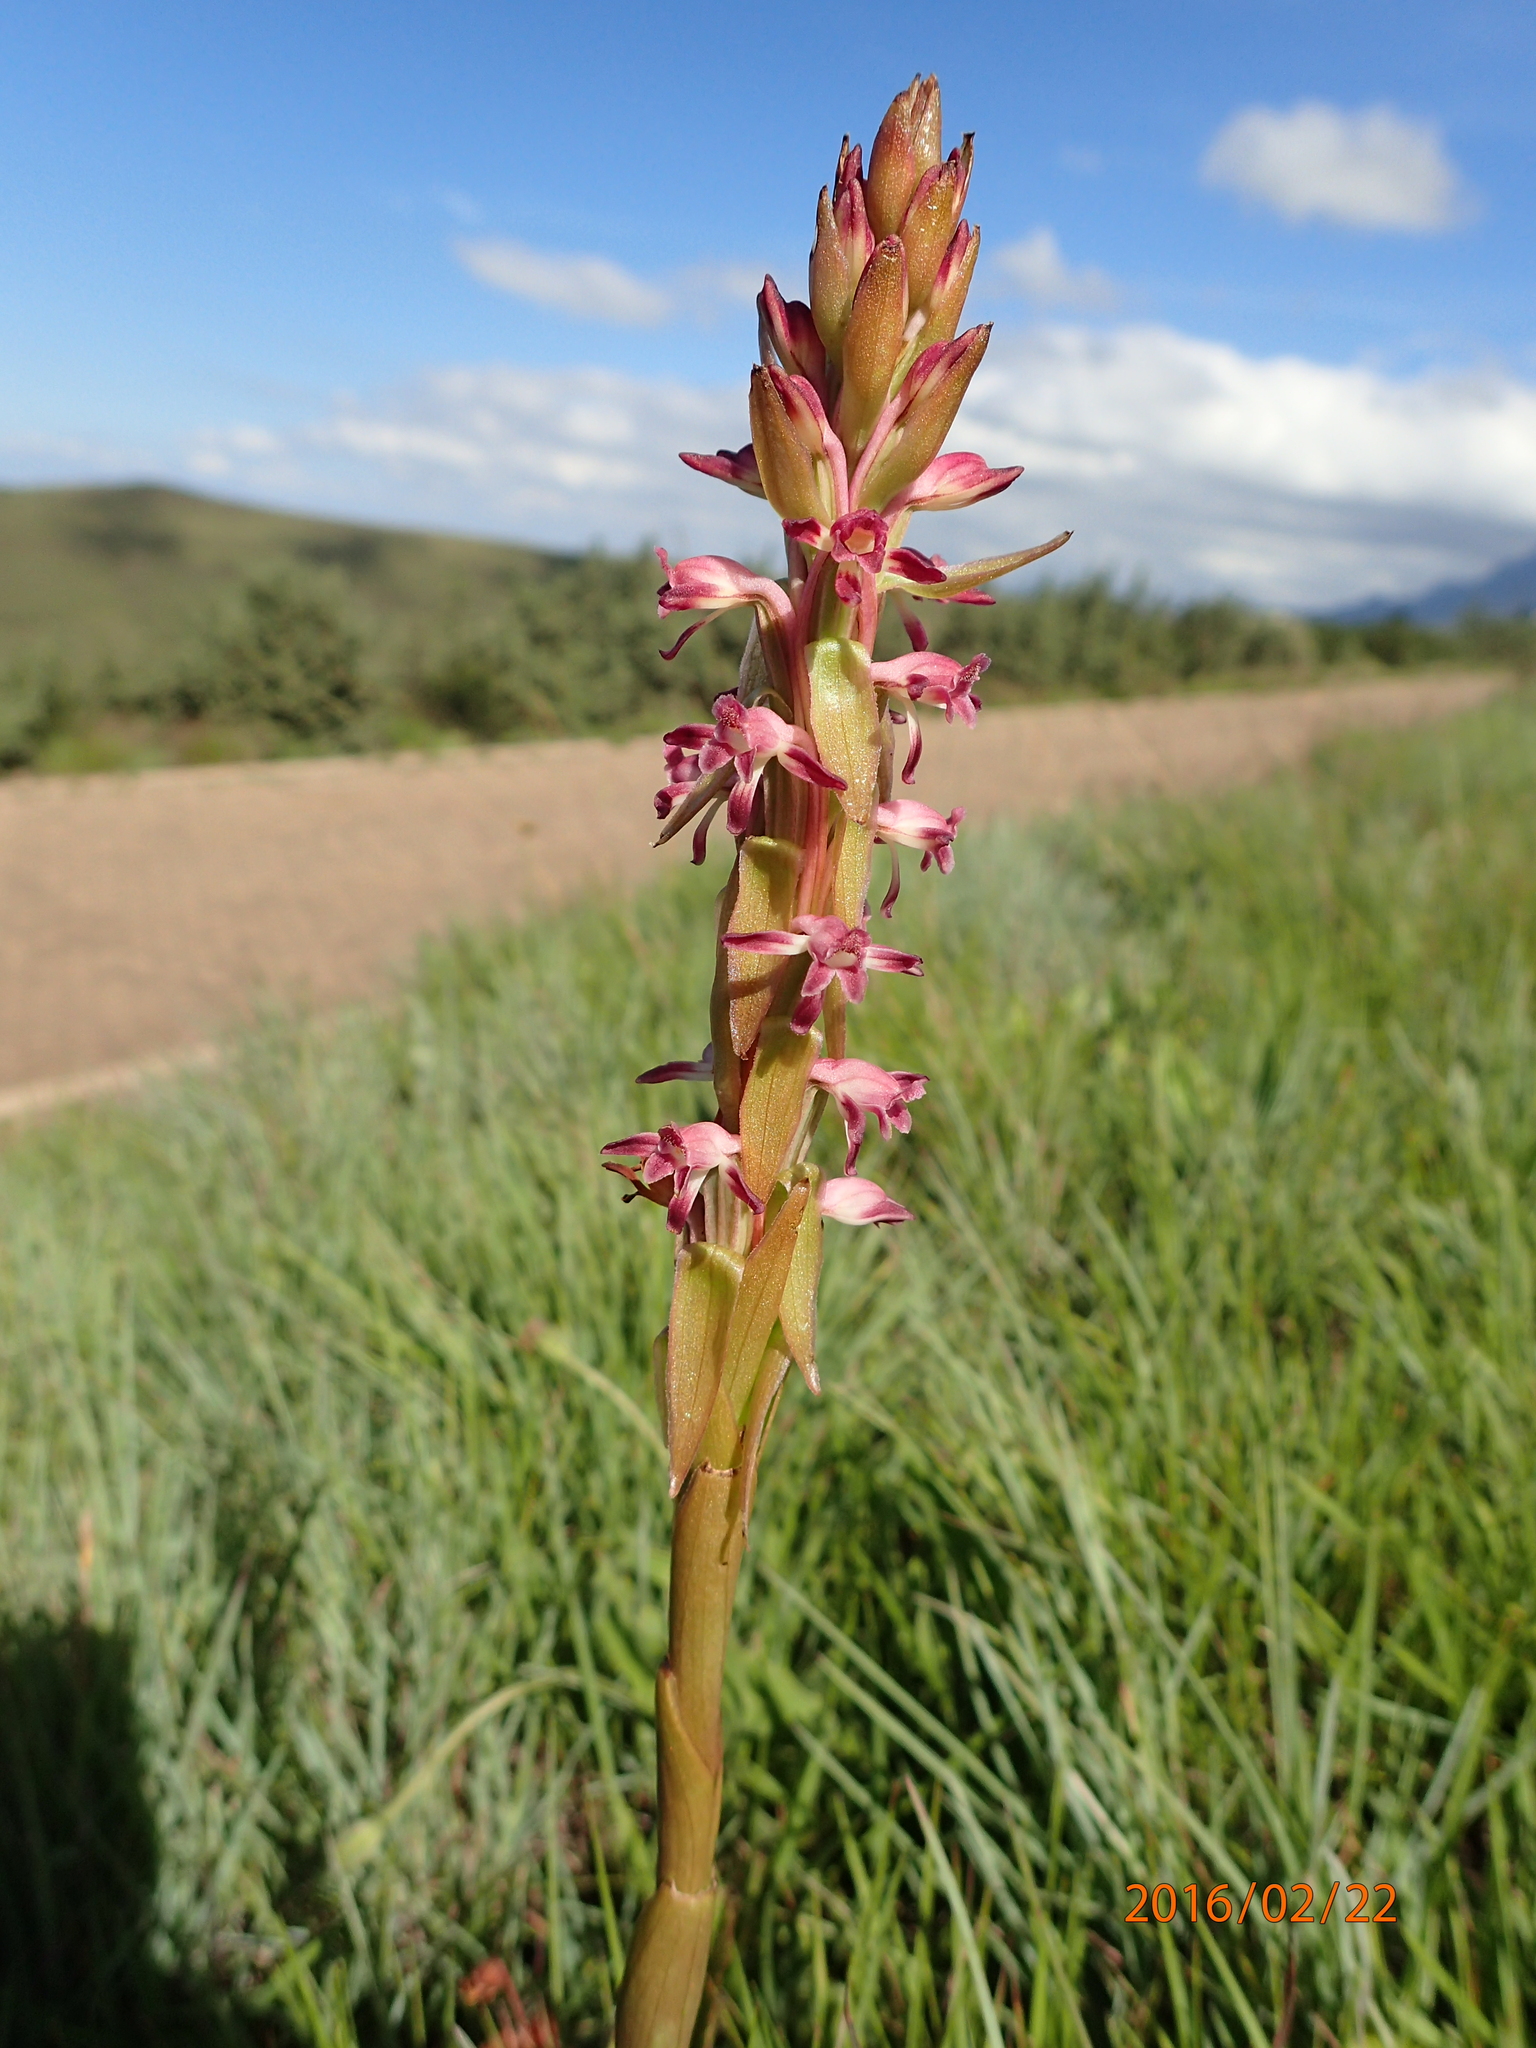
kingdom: Plantae
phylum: Tracheophyta
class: Liliopsida
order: Asparagales
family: Orchidaceae
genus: Satyrium
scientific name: Satyrium longicauda
